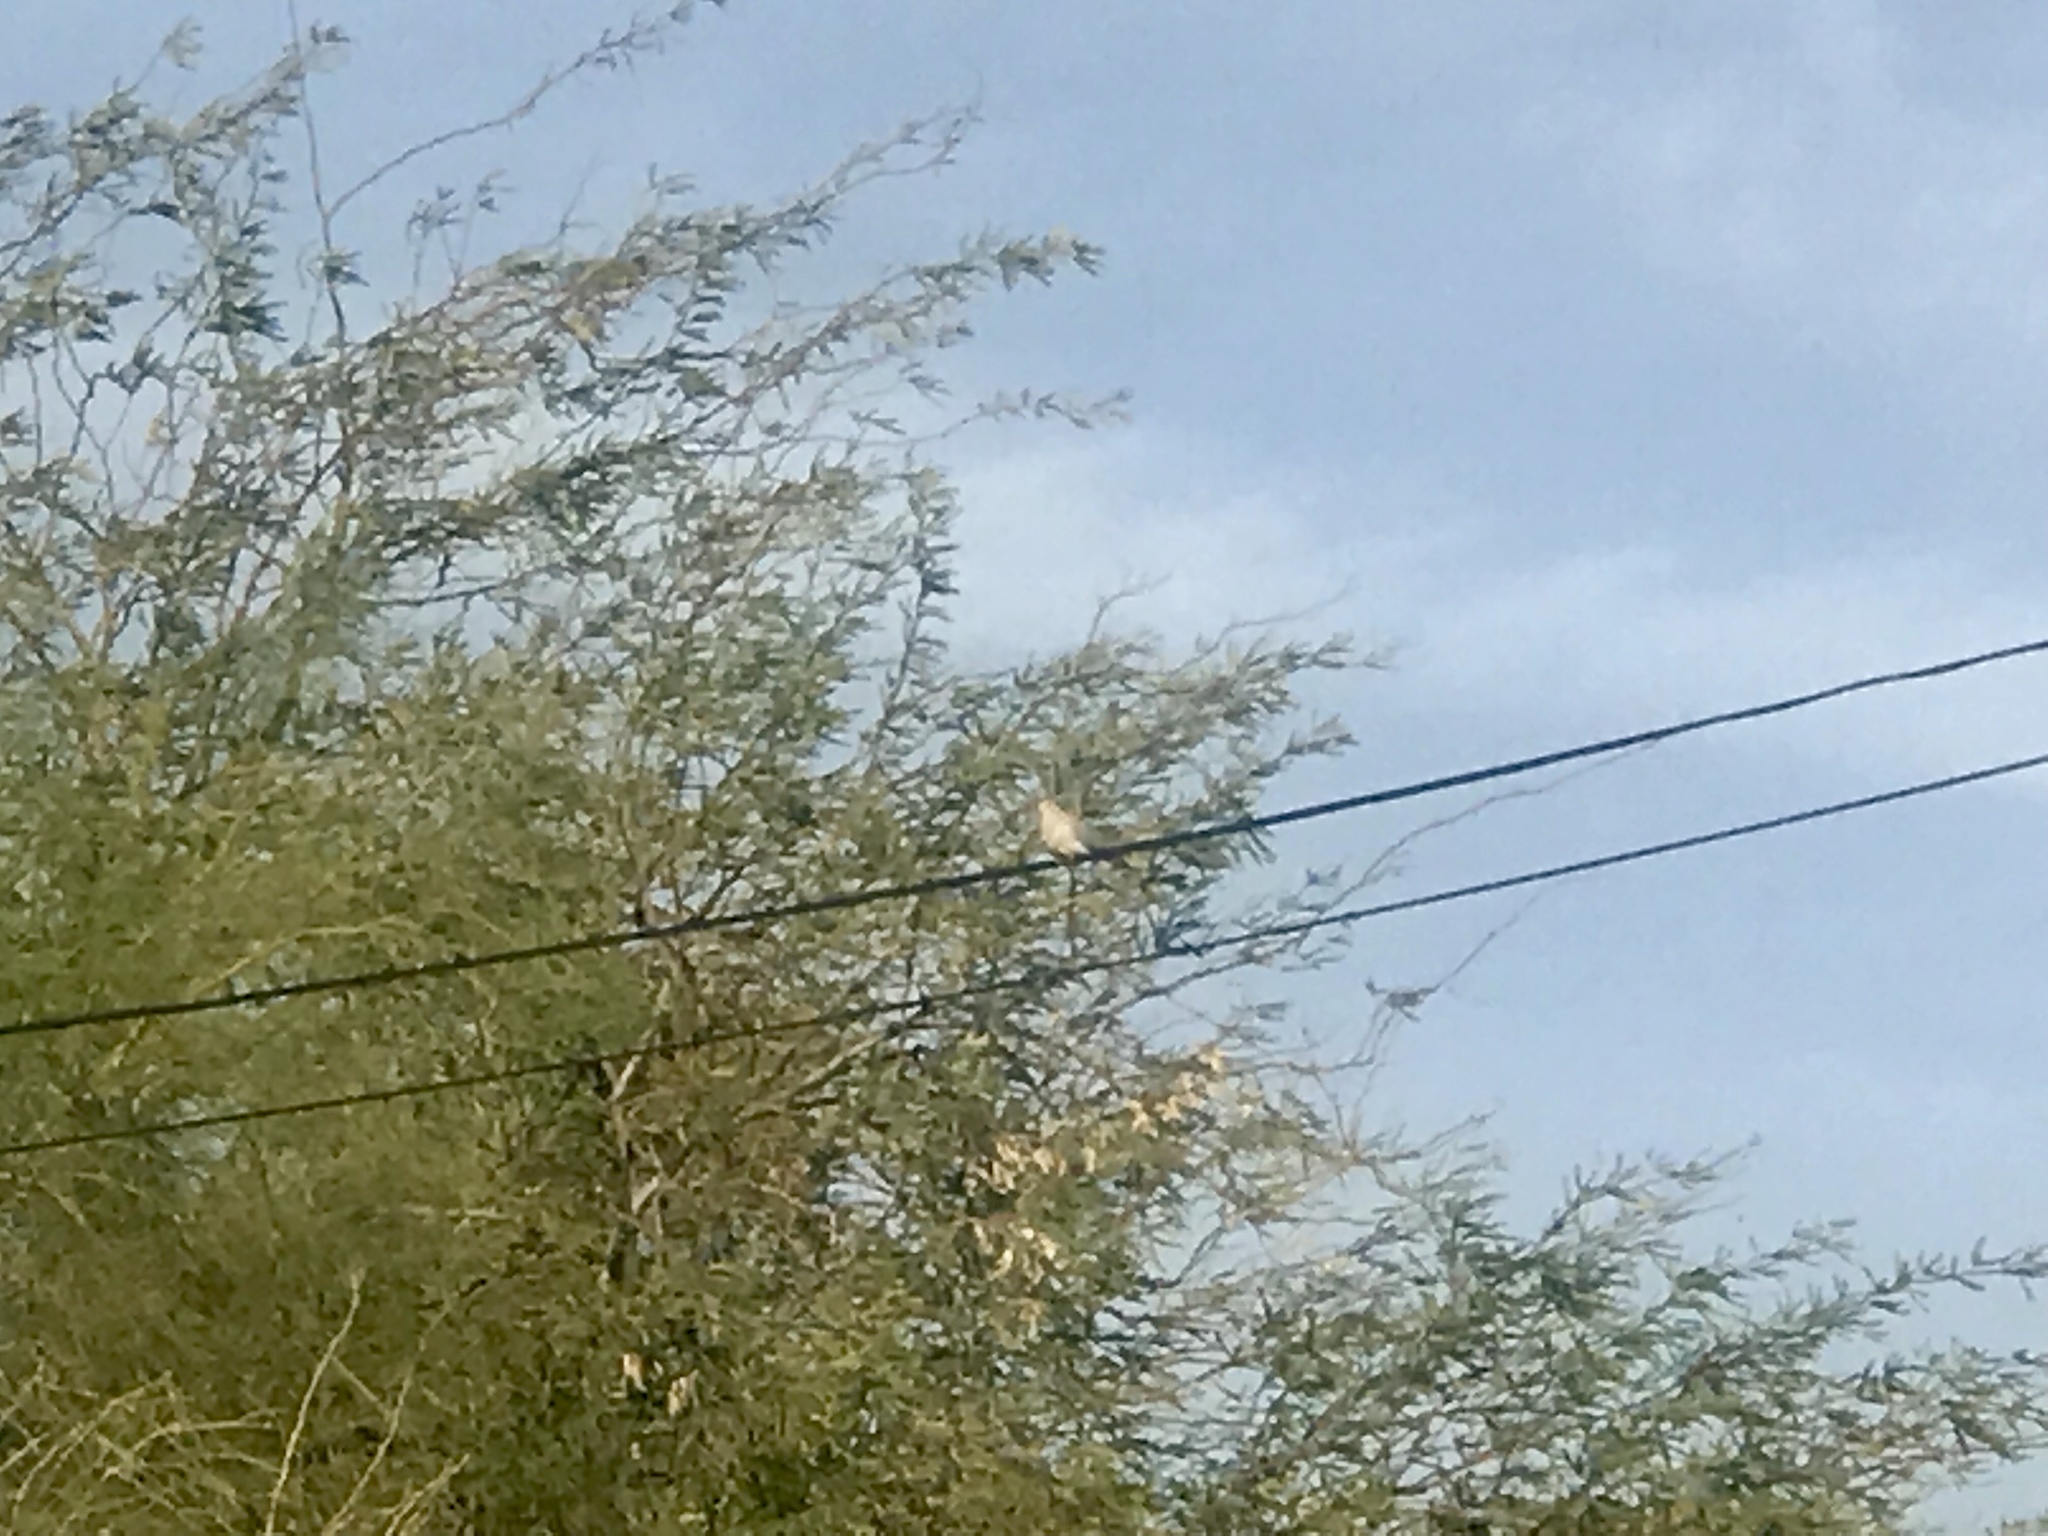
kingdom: Animalia
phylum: Chordata
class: Aves
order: Columbiformes
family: Columbidae
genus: Zenaida
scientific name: Zenaida macroura
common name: Mourning dove
